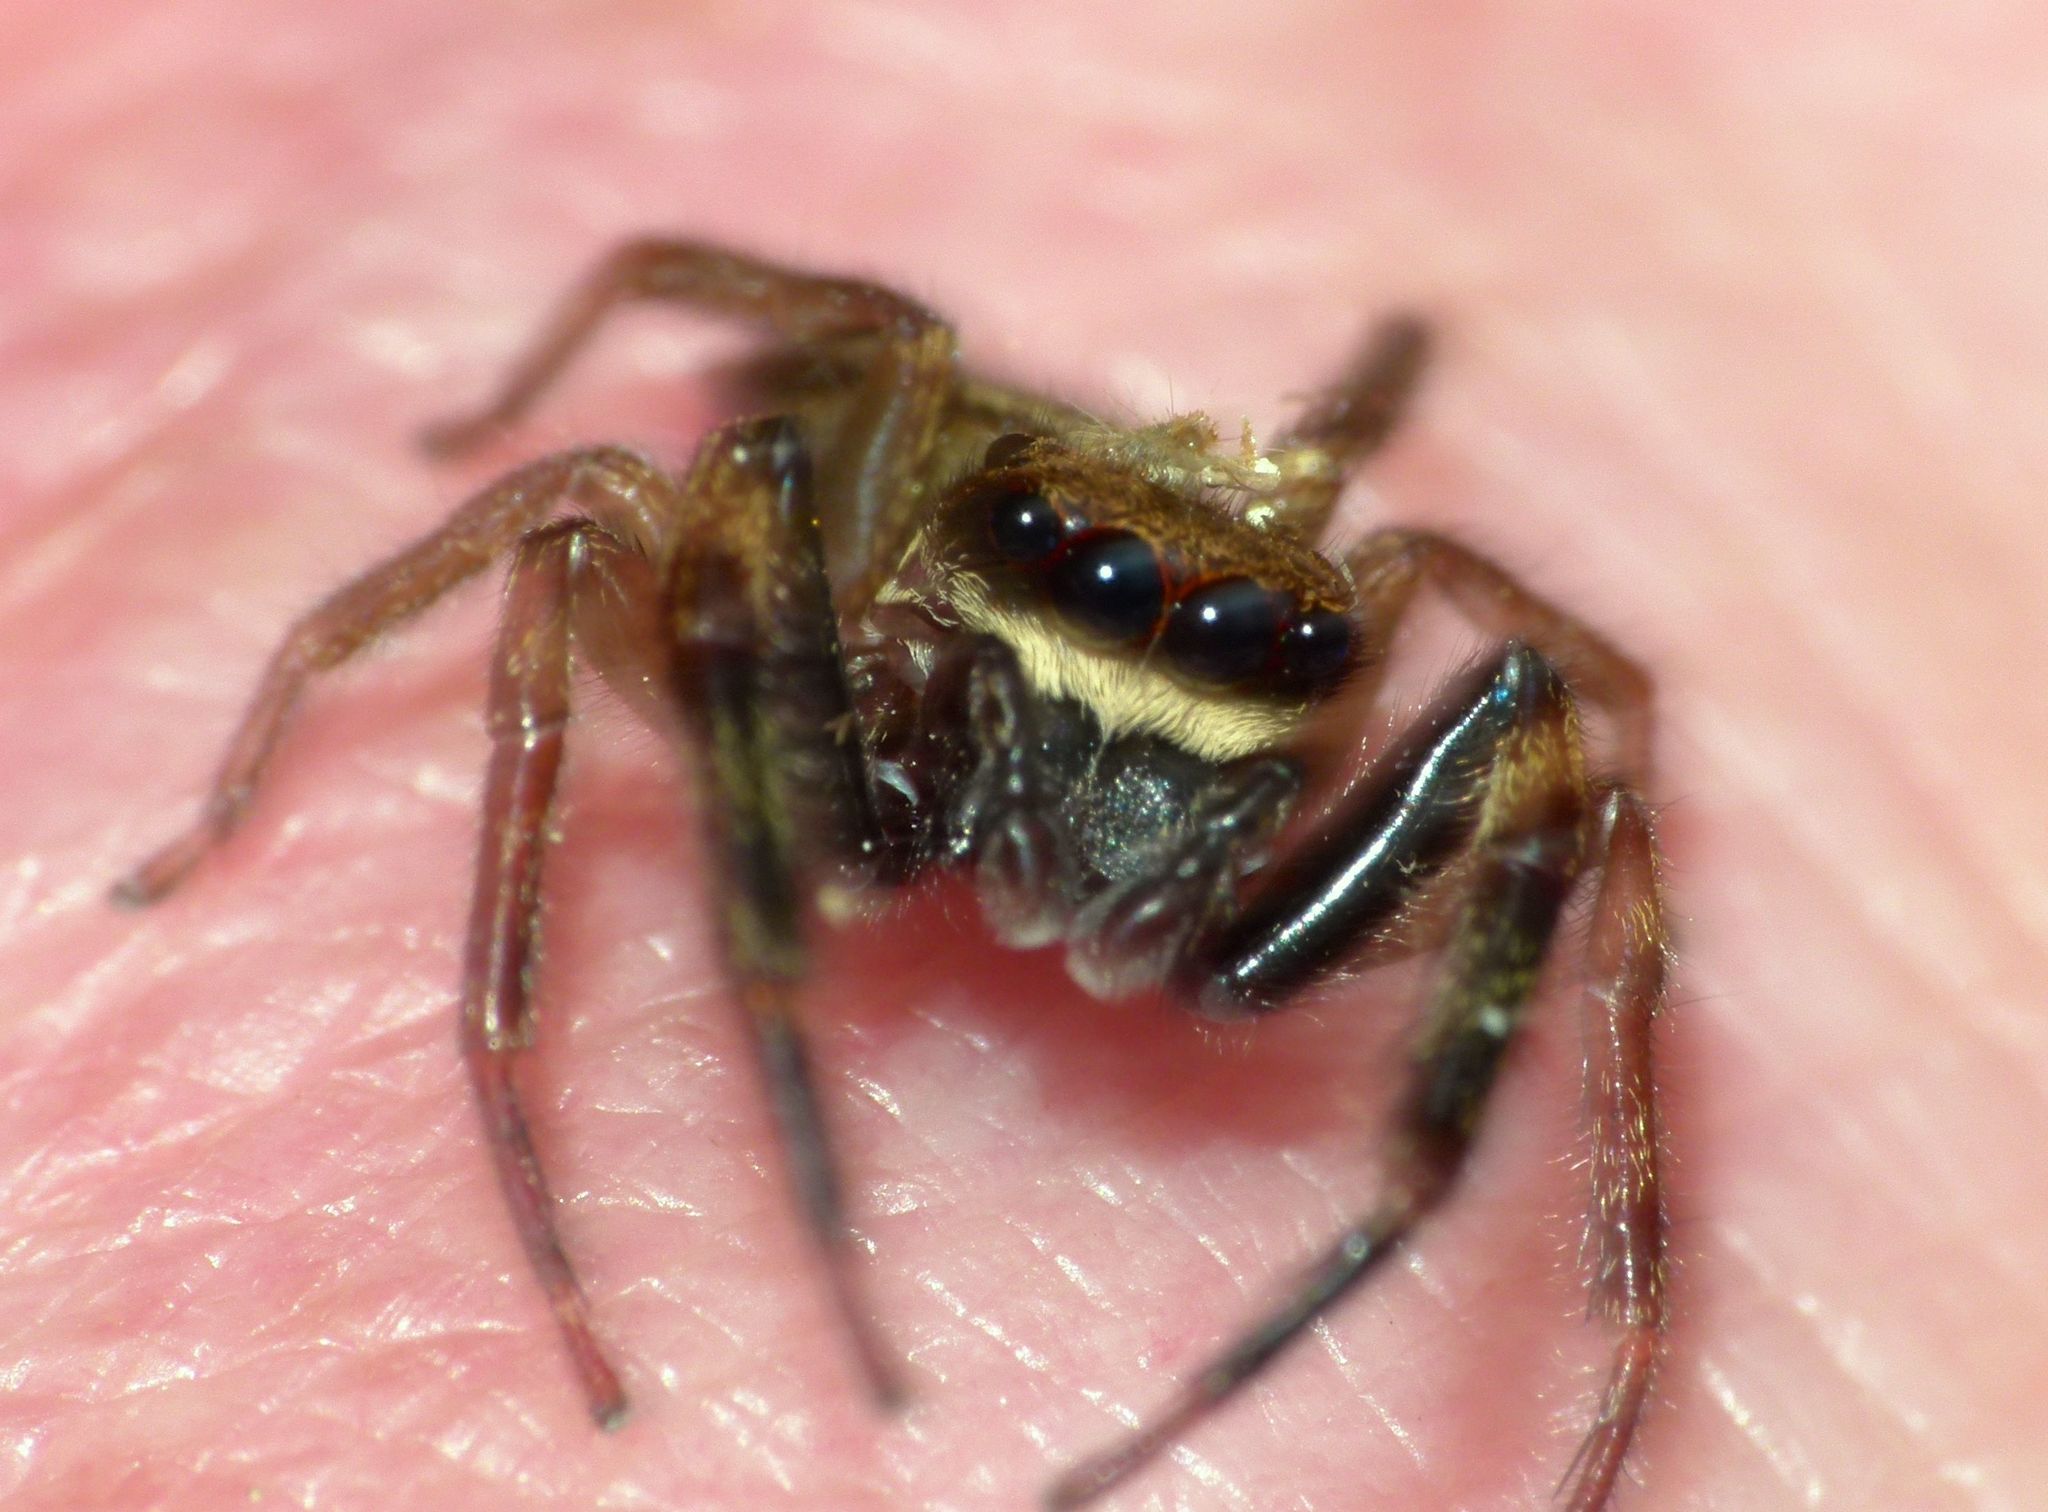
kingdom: Animalia
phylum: Arthropoda
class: Arachnida
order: Araneae
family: Salticidae
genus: Trite
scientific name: Trite auricoma
